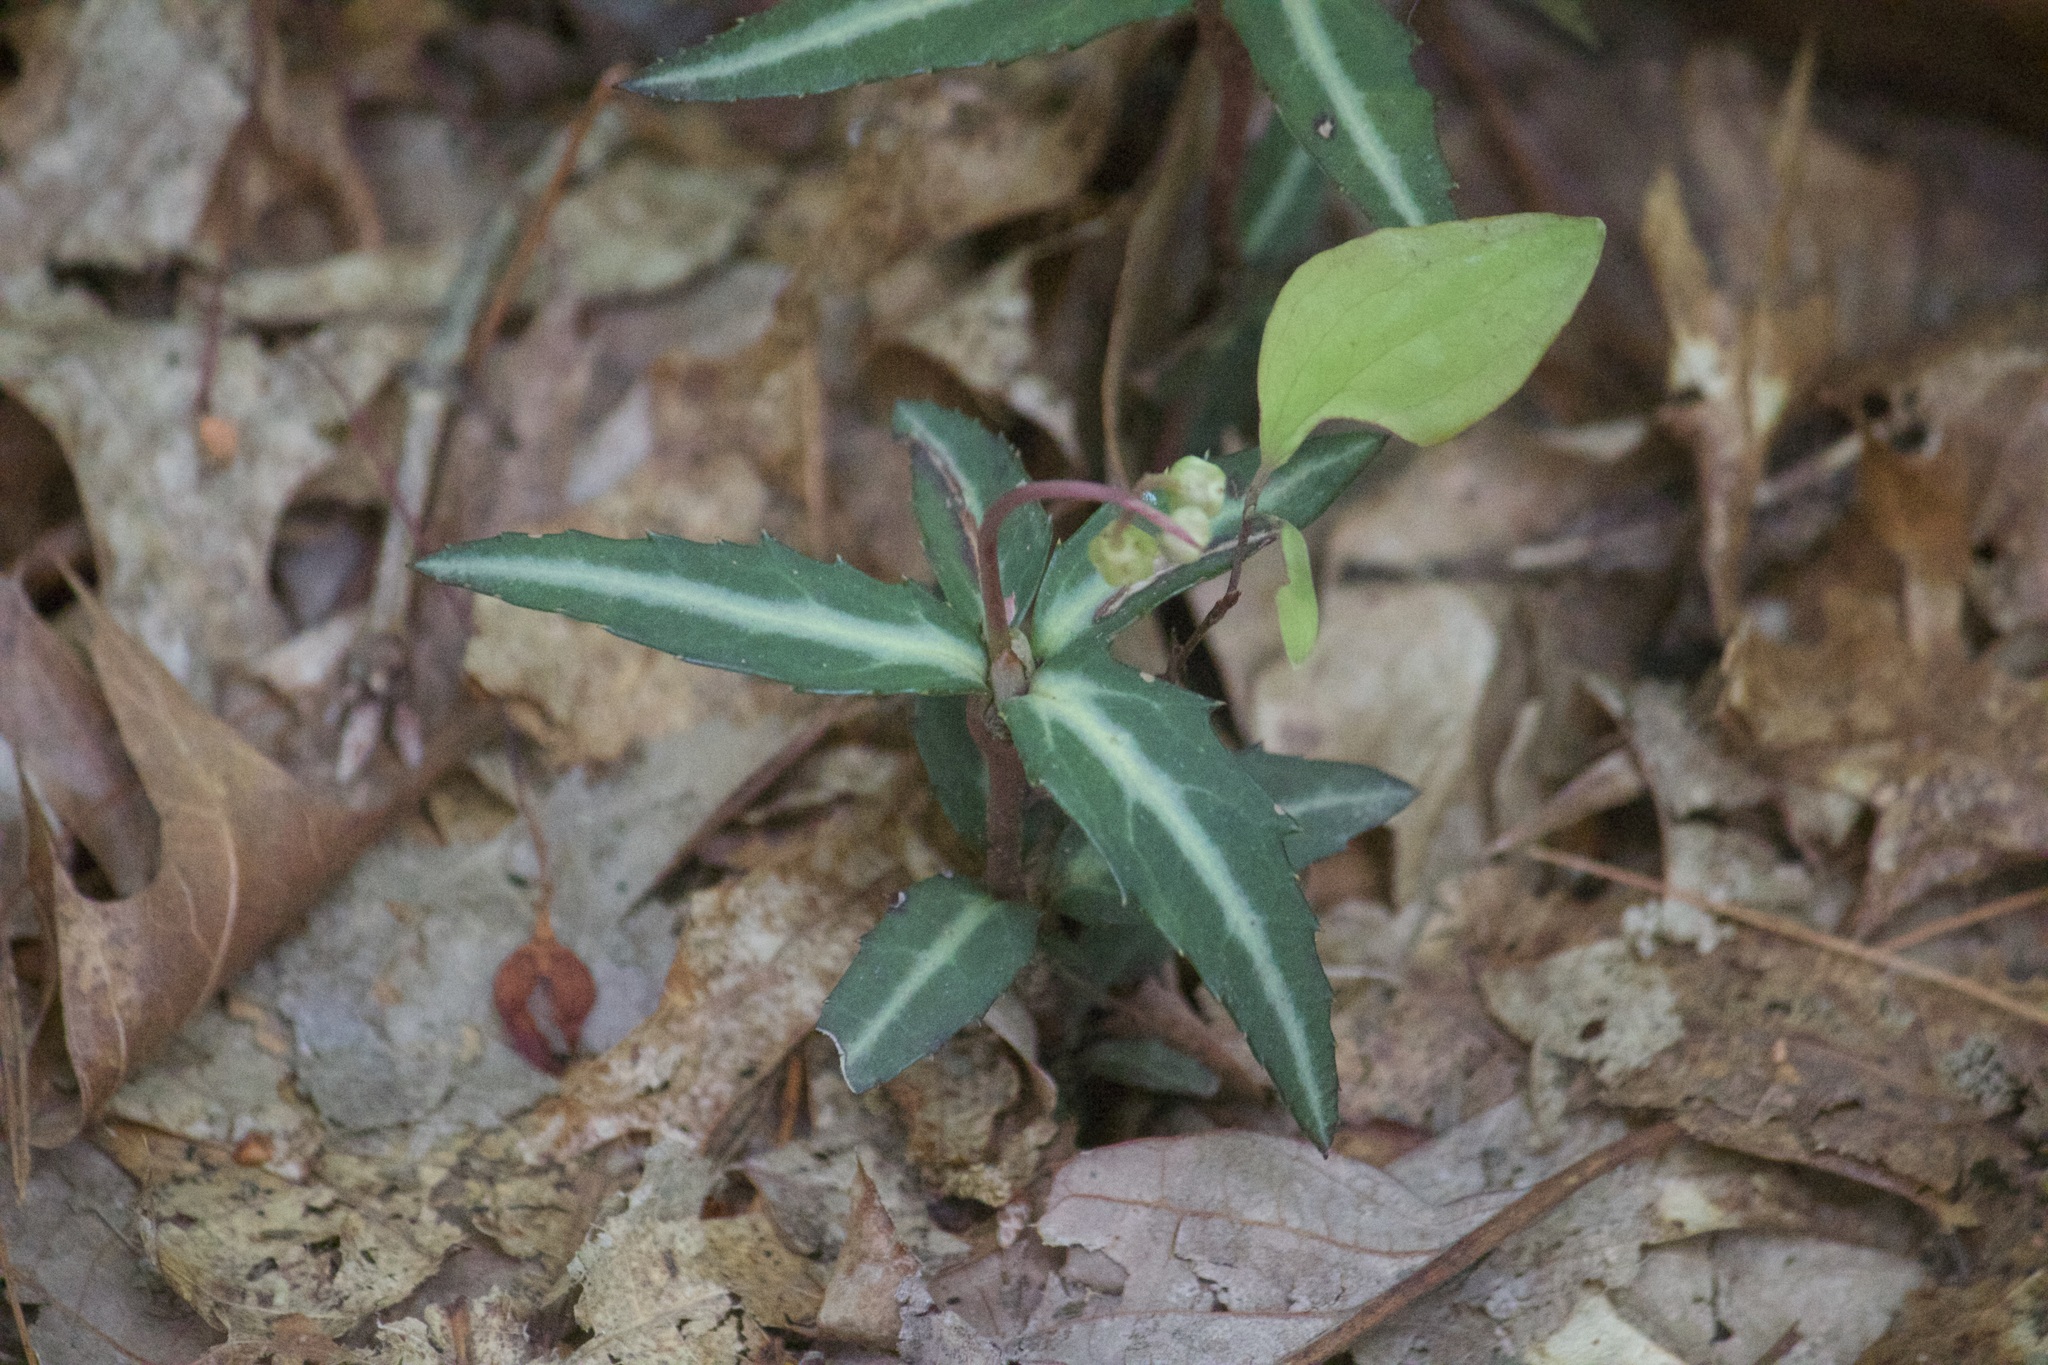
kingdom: Plantae
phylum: Tracheophyta
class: Magnoliopsida
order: Ericales
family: Ericaceae
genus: Chimaphila
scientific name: Chimaphila maculata
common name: Spotted pipsissewa
